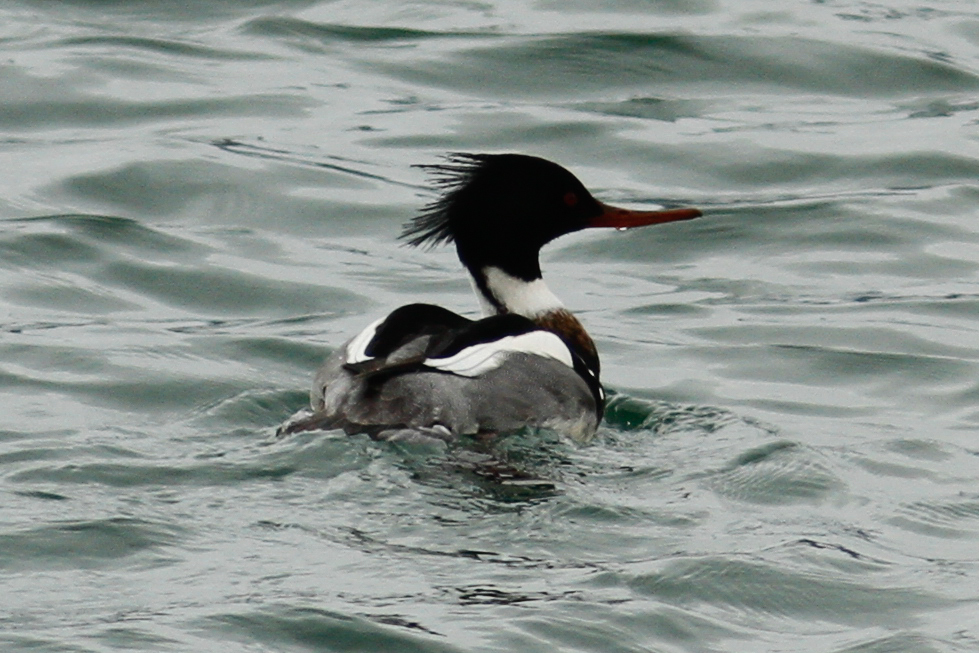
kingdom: Animalia
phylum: Chordata
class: Aves
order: Anseriformes
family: Anatidae
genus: Mergus
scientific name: Mergus serrator
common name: Red-breasted merganser
